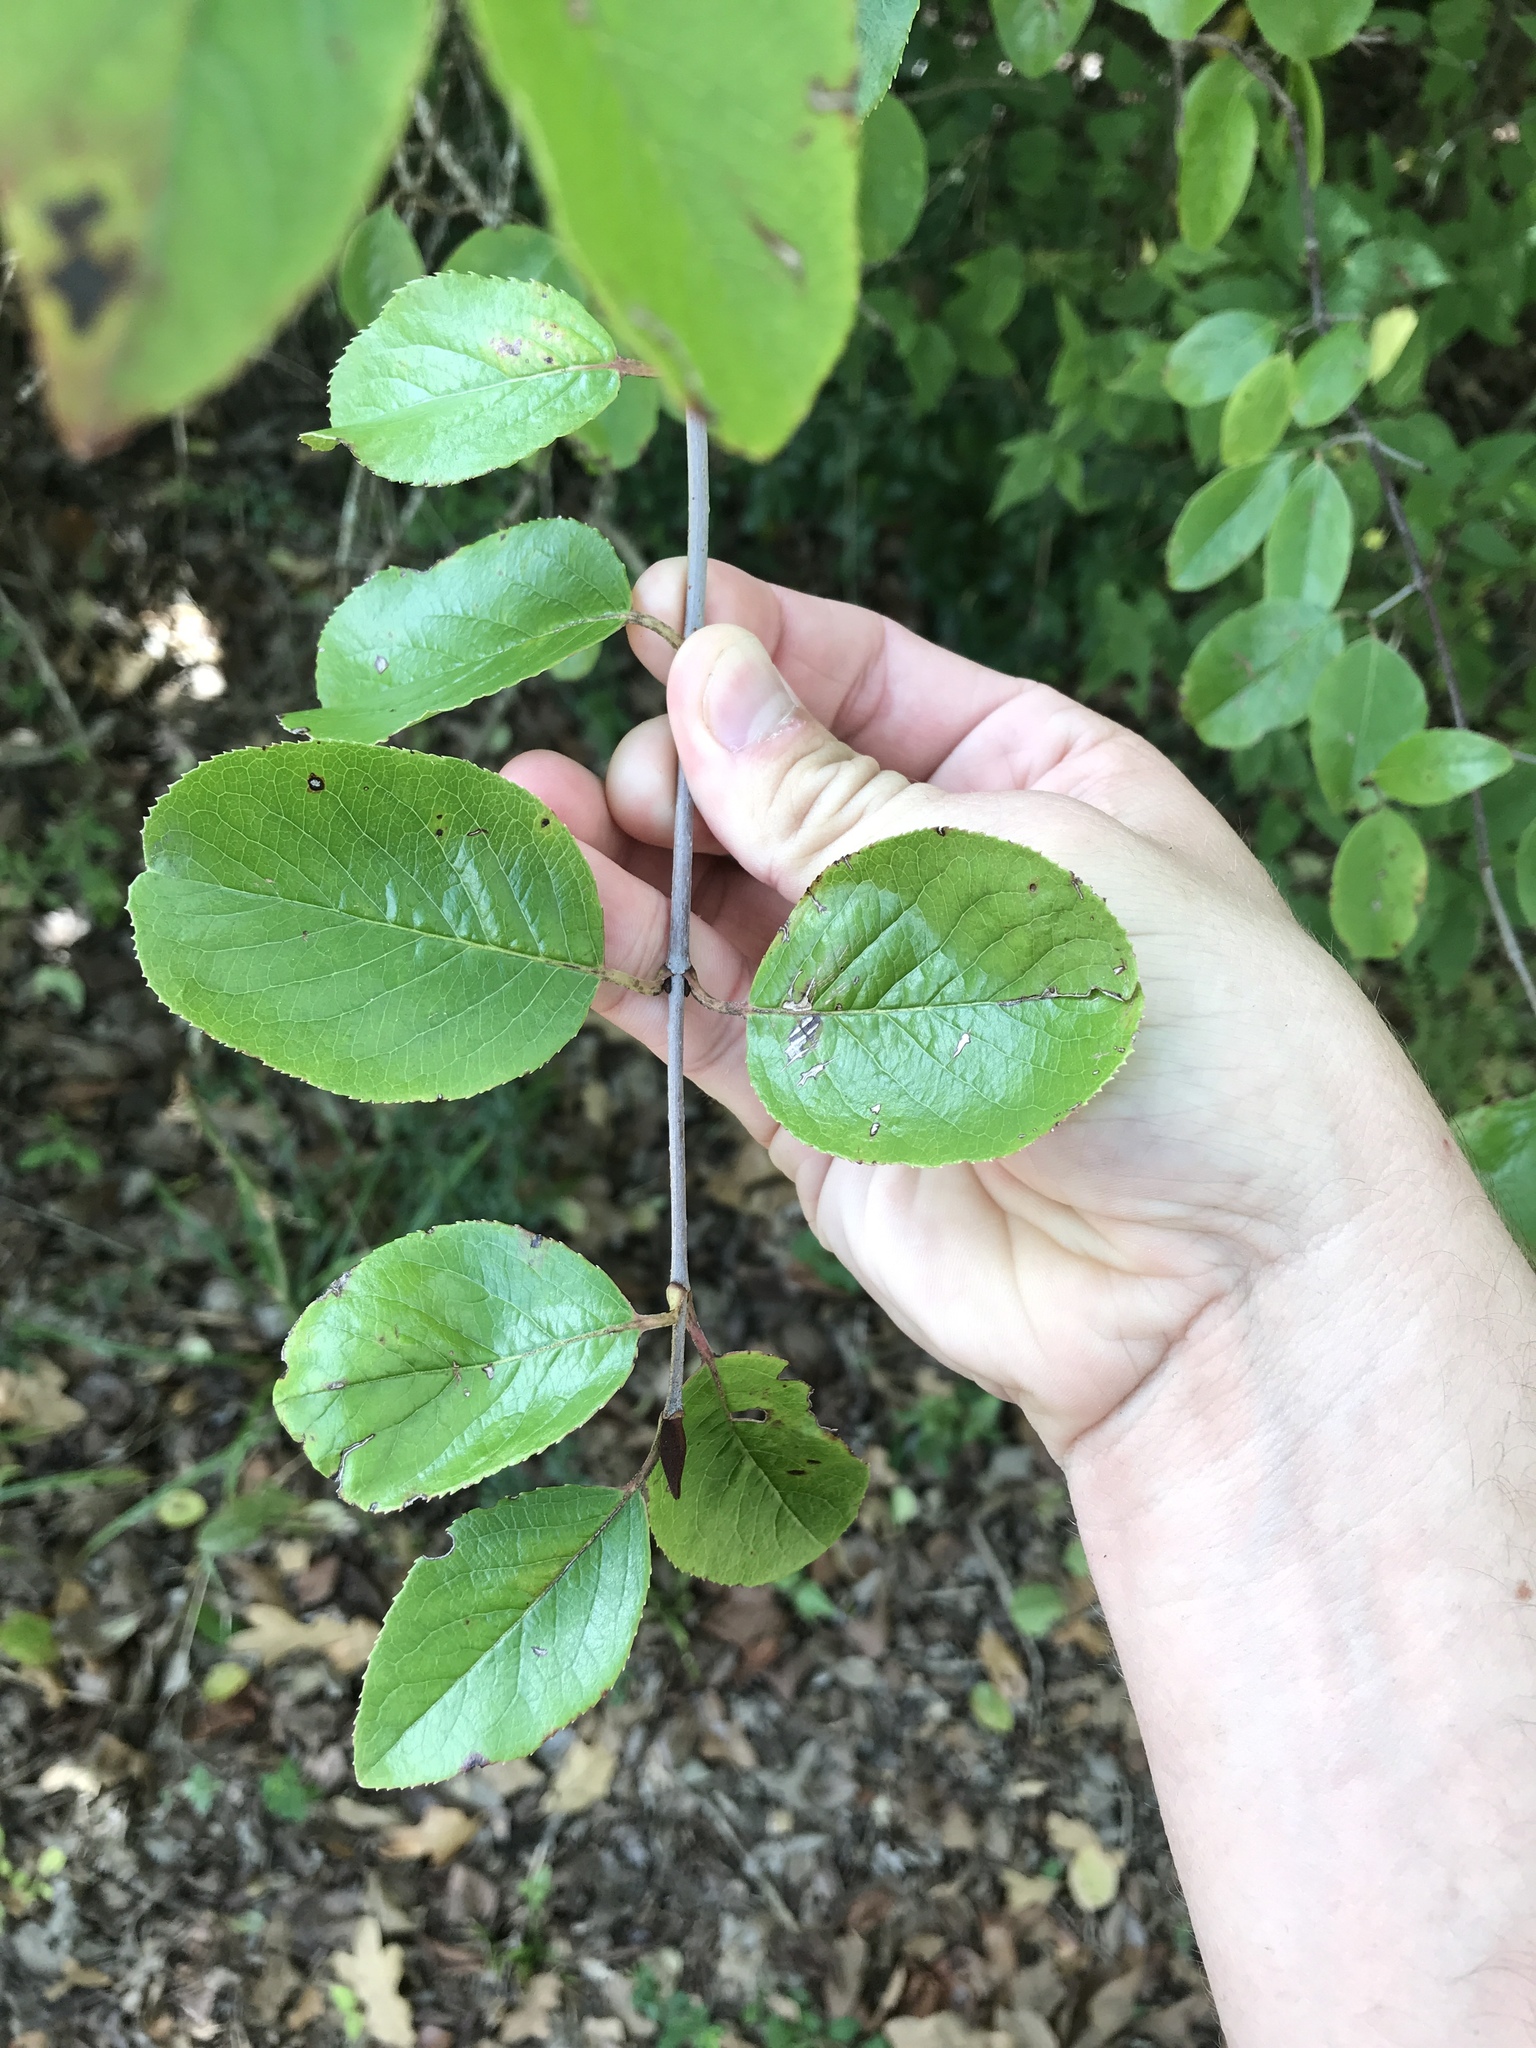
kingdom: Plantae
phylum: Tracheophyta
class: Magnoliopsida
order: Dipsacales
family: Viburnaceae
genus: Viburnum
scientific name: Viburnum rufidulum
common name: Blue haw
